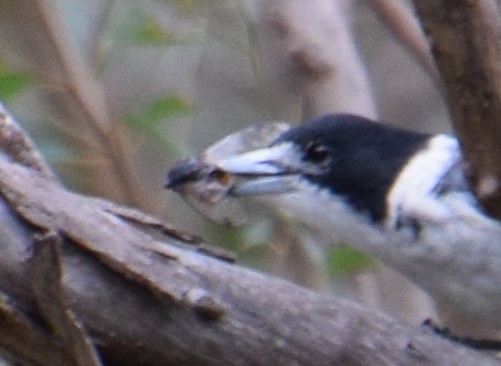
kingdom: Animalia
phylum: Arthropoda
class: Insecta
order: Hemiptera
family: Cicadidae
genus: Psaltoda
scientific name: Psaltoda plaga
